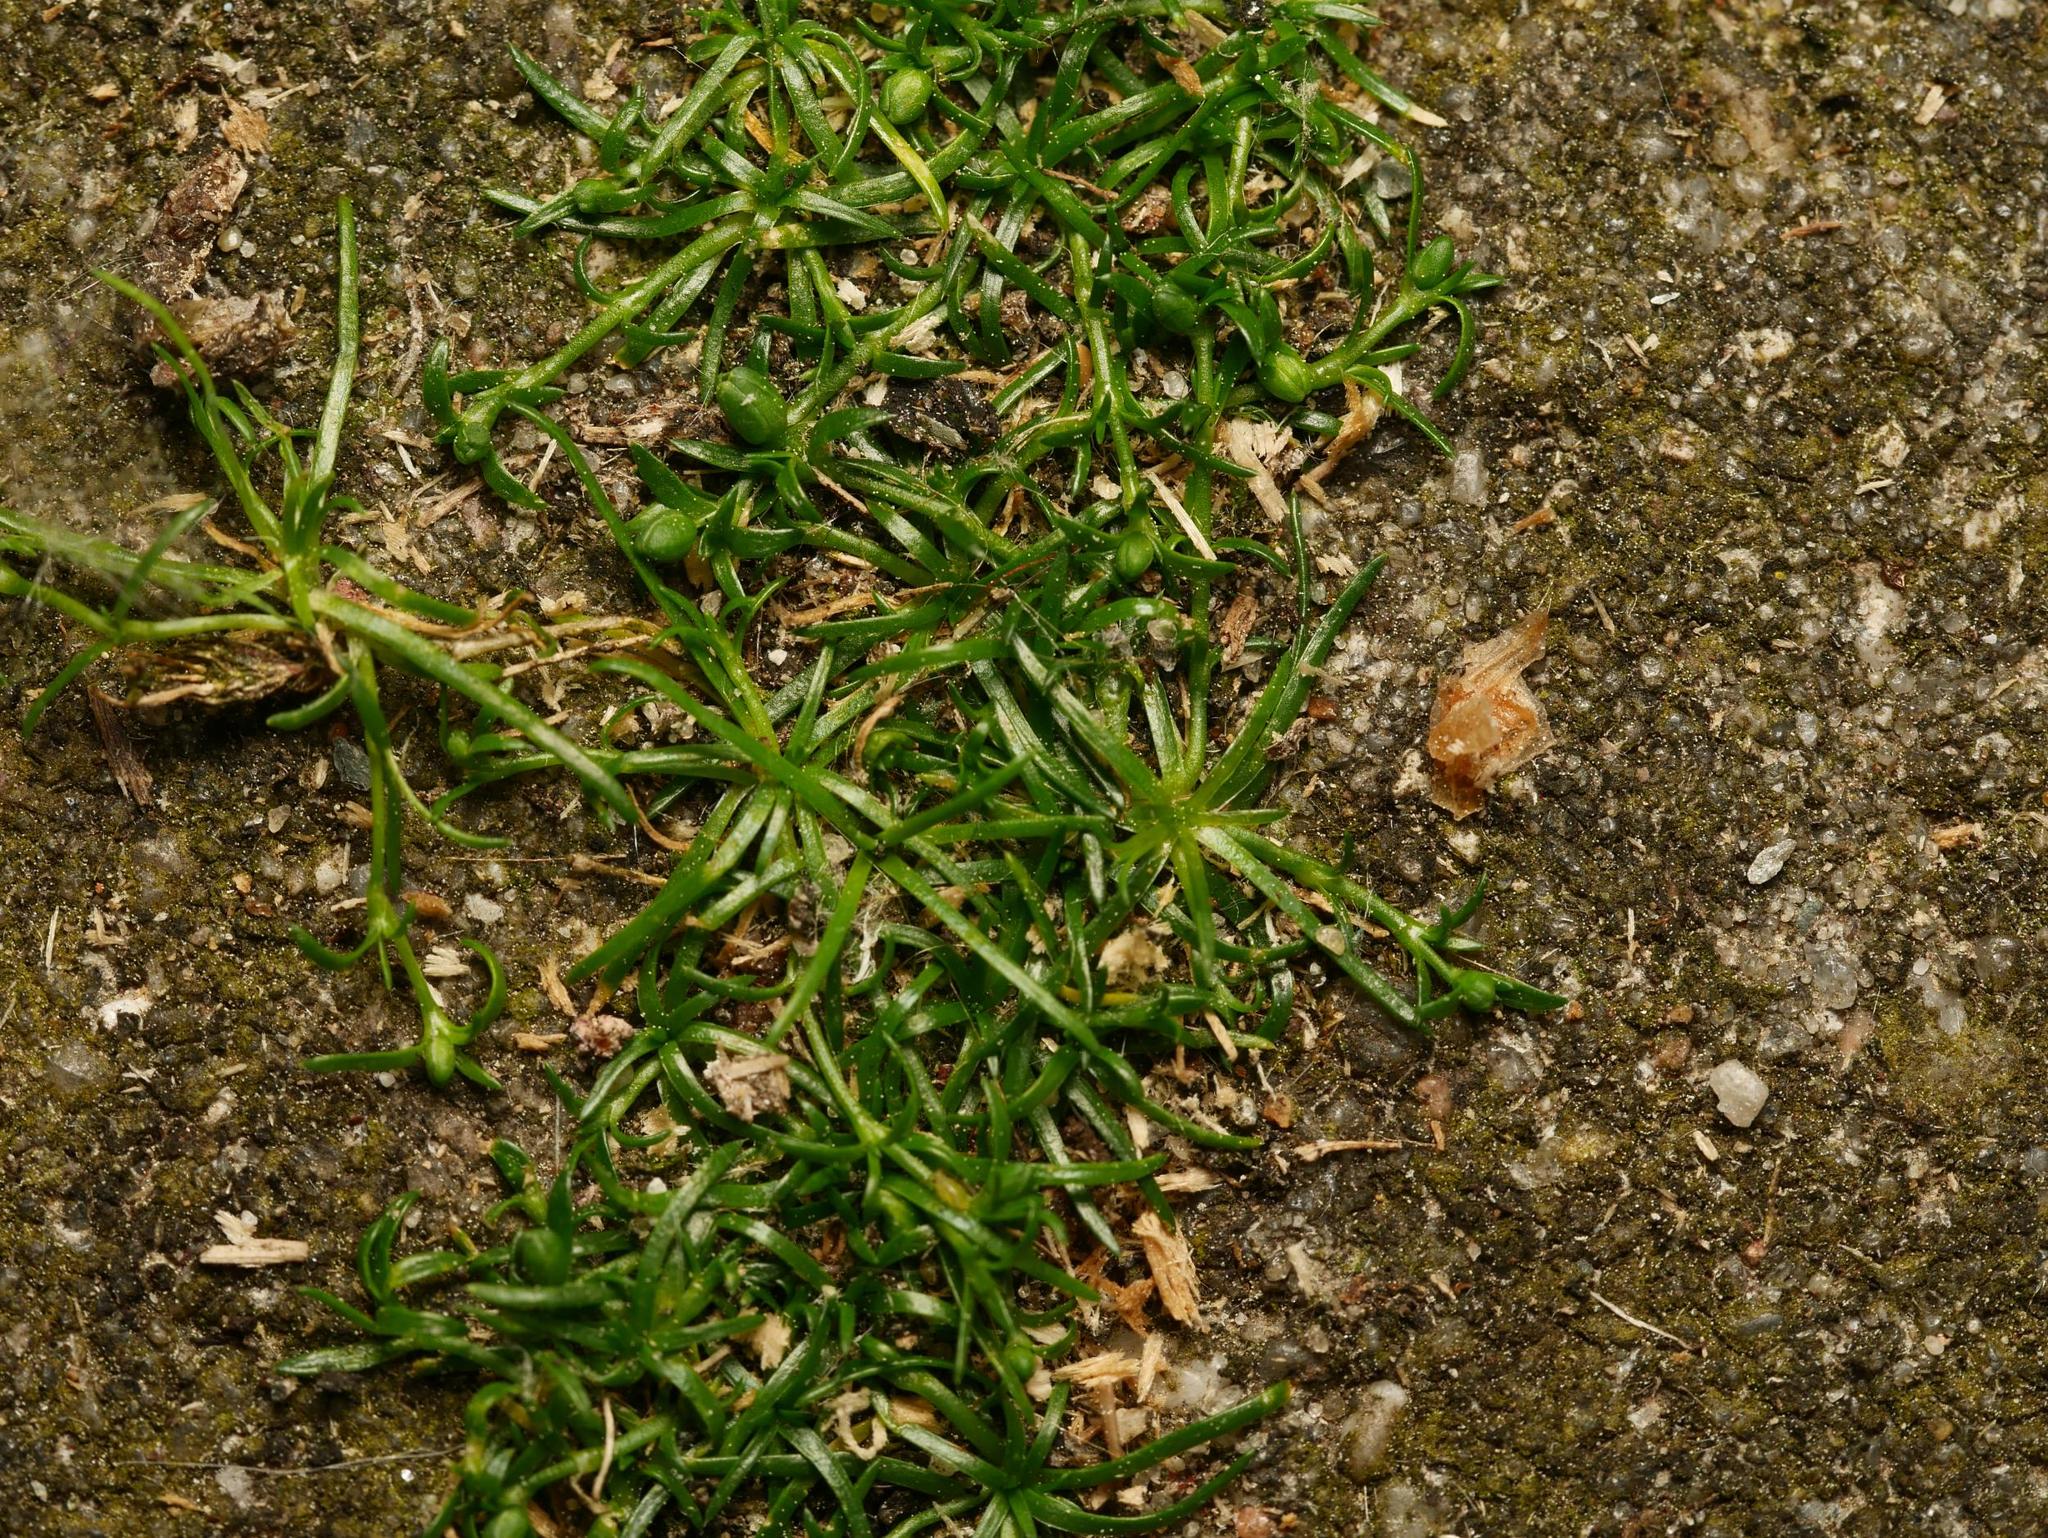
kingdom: Plantae
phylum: Tracheophyta
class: Magnoliopsida
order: Caryophyllales
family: Caryophyllaceae
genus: Sagina
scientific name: Sagina procumbens
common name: Procumbent pearlwort
